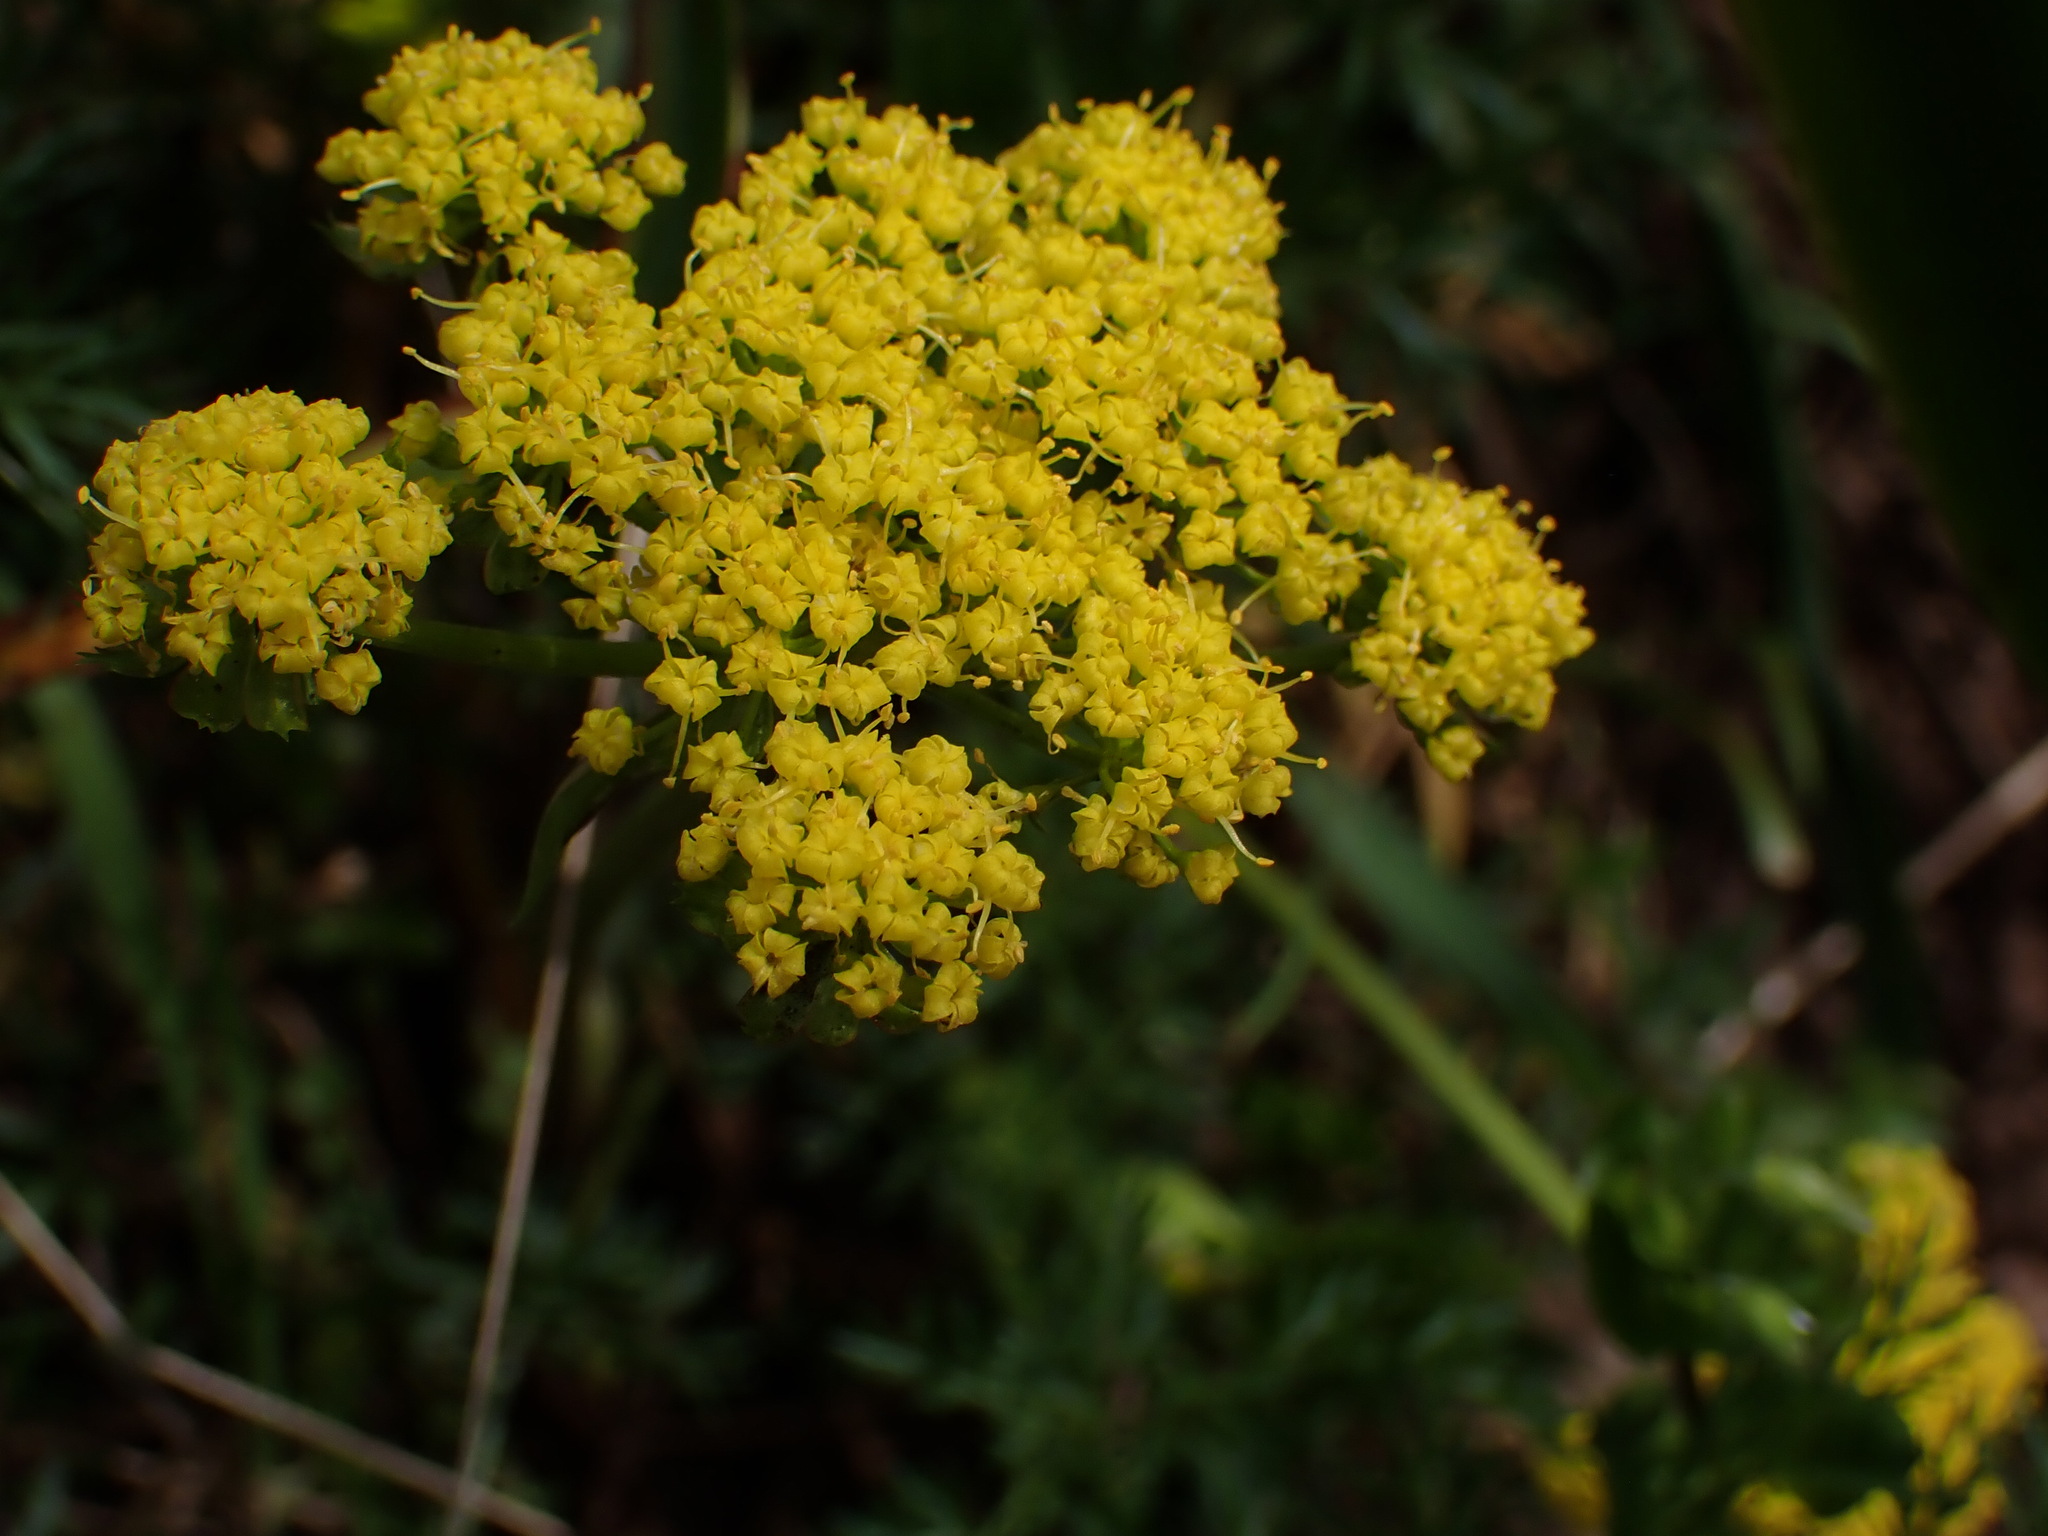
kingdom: Plantae
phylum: Tracheophyta
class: Magnoliopsida
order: Apiales
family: Apiaceae
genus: Lomatium
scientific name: Lomatium utriculatum
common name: Fine-leaf desert-parsley
